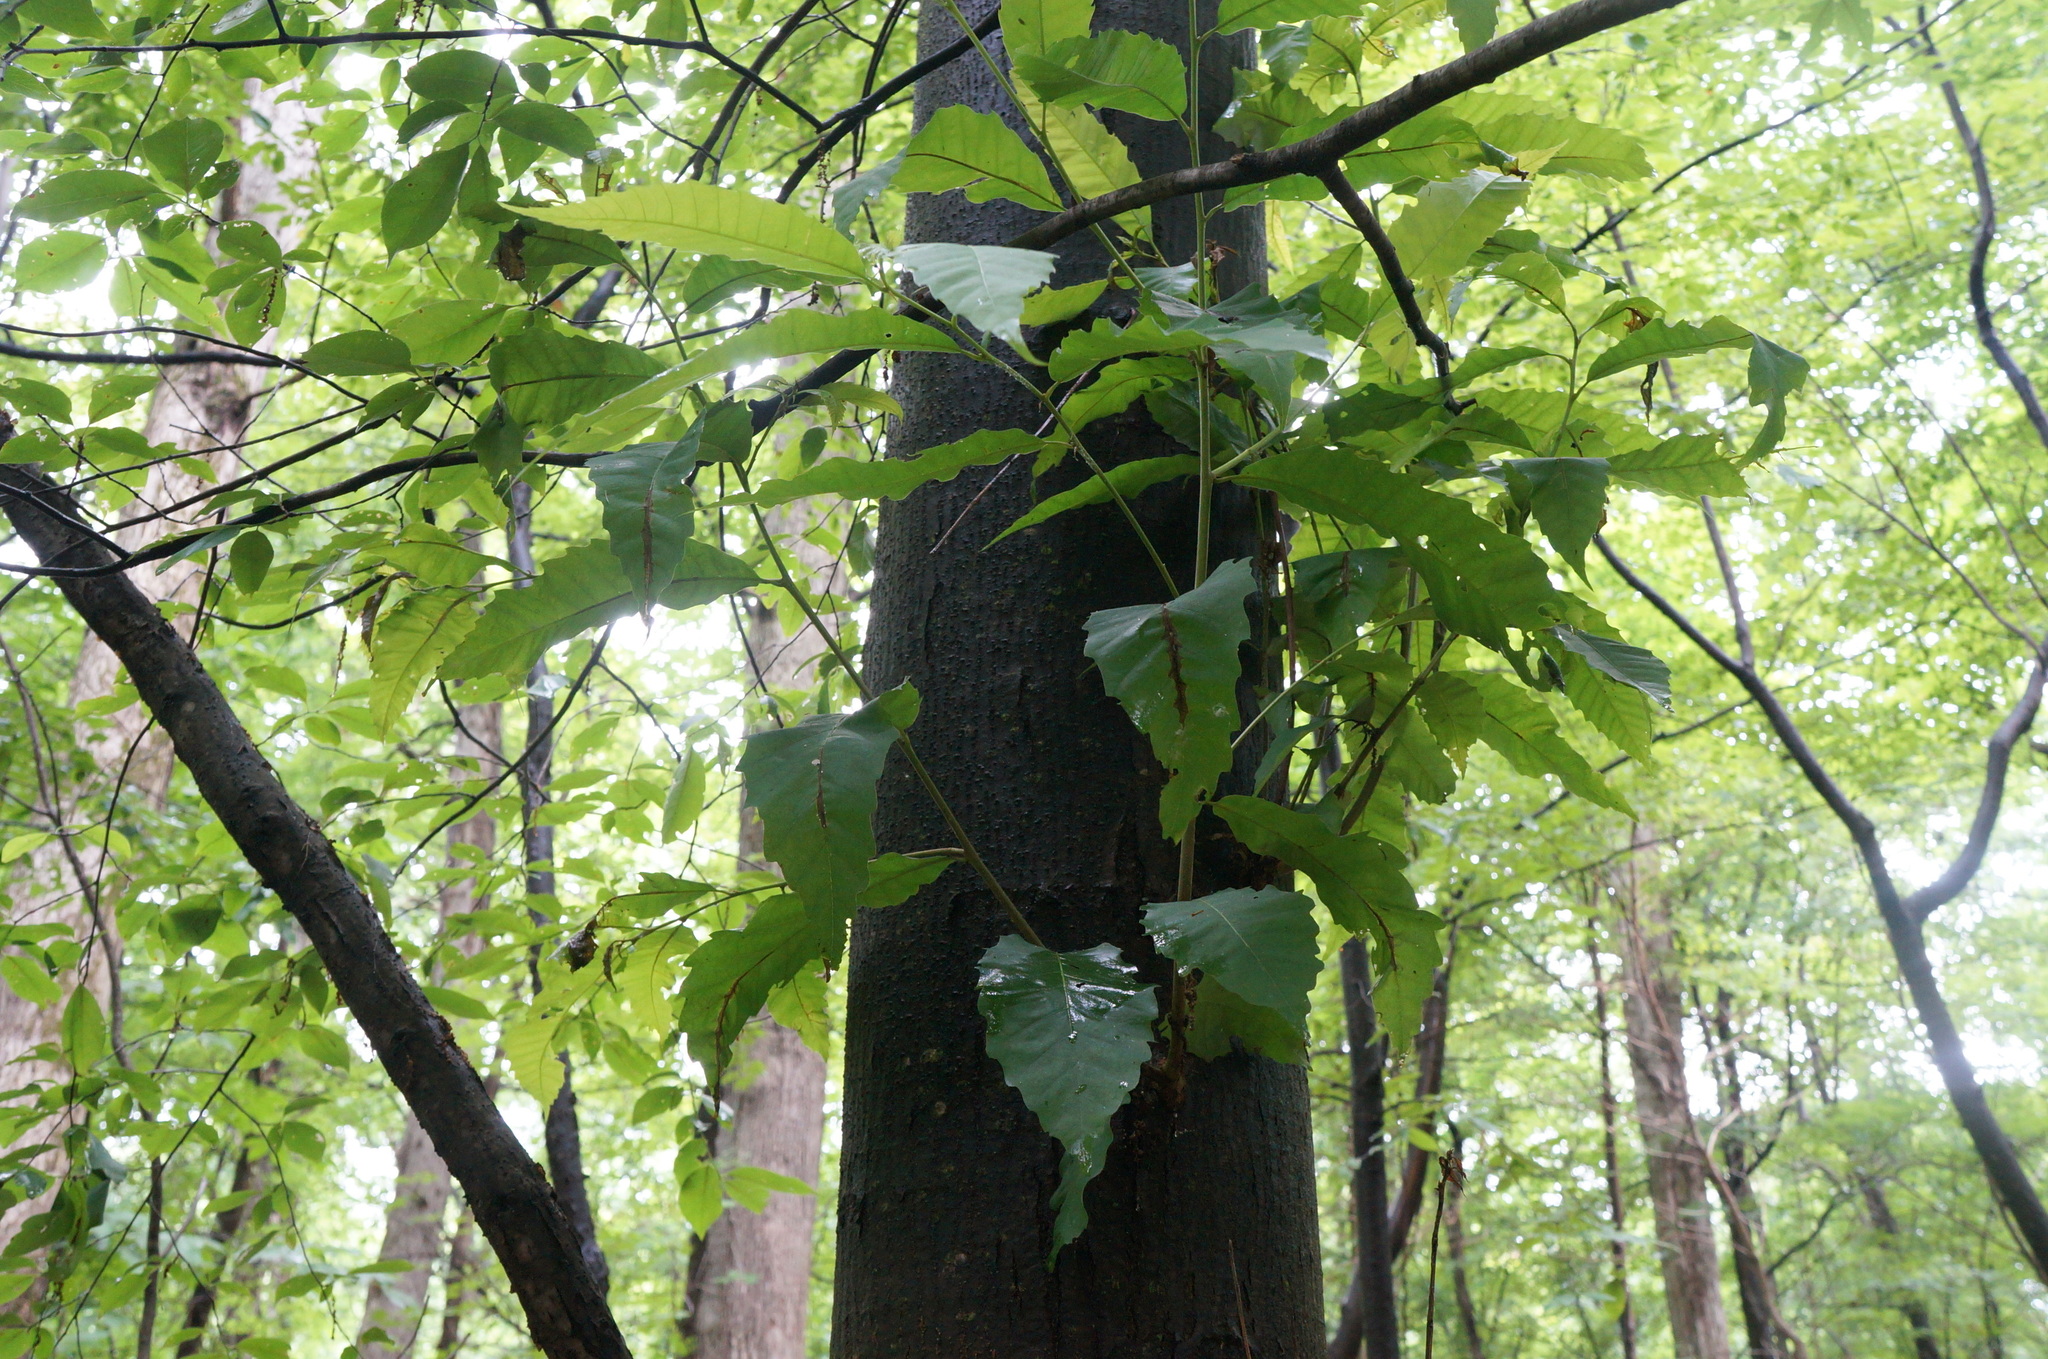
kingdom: Plantae
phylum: Tracheophyta
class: Magnoliopsida
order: Fagales
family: Fagaceae
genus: Castanea
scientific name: Castanea dentata
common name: American chestnut
